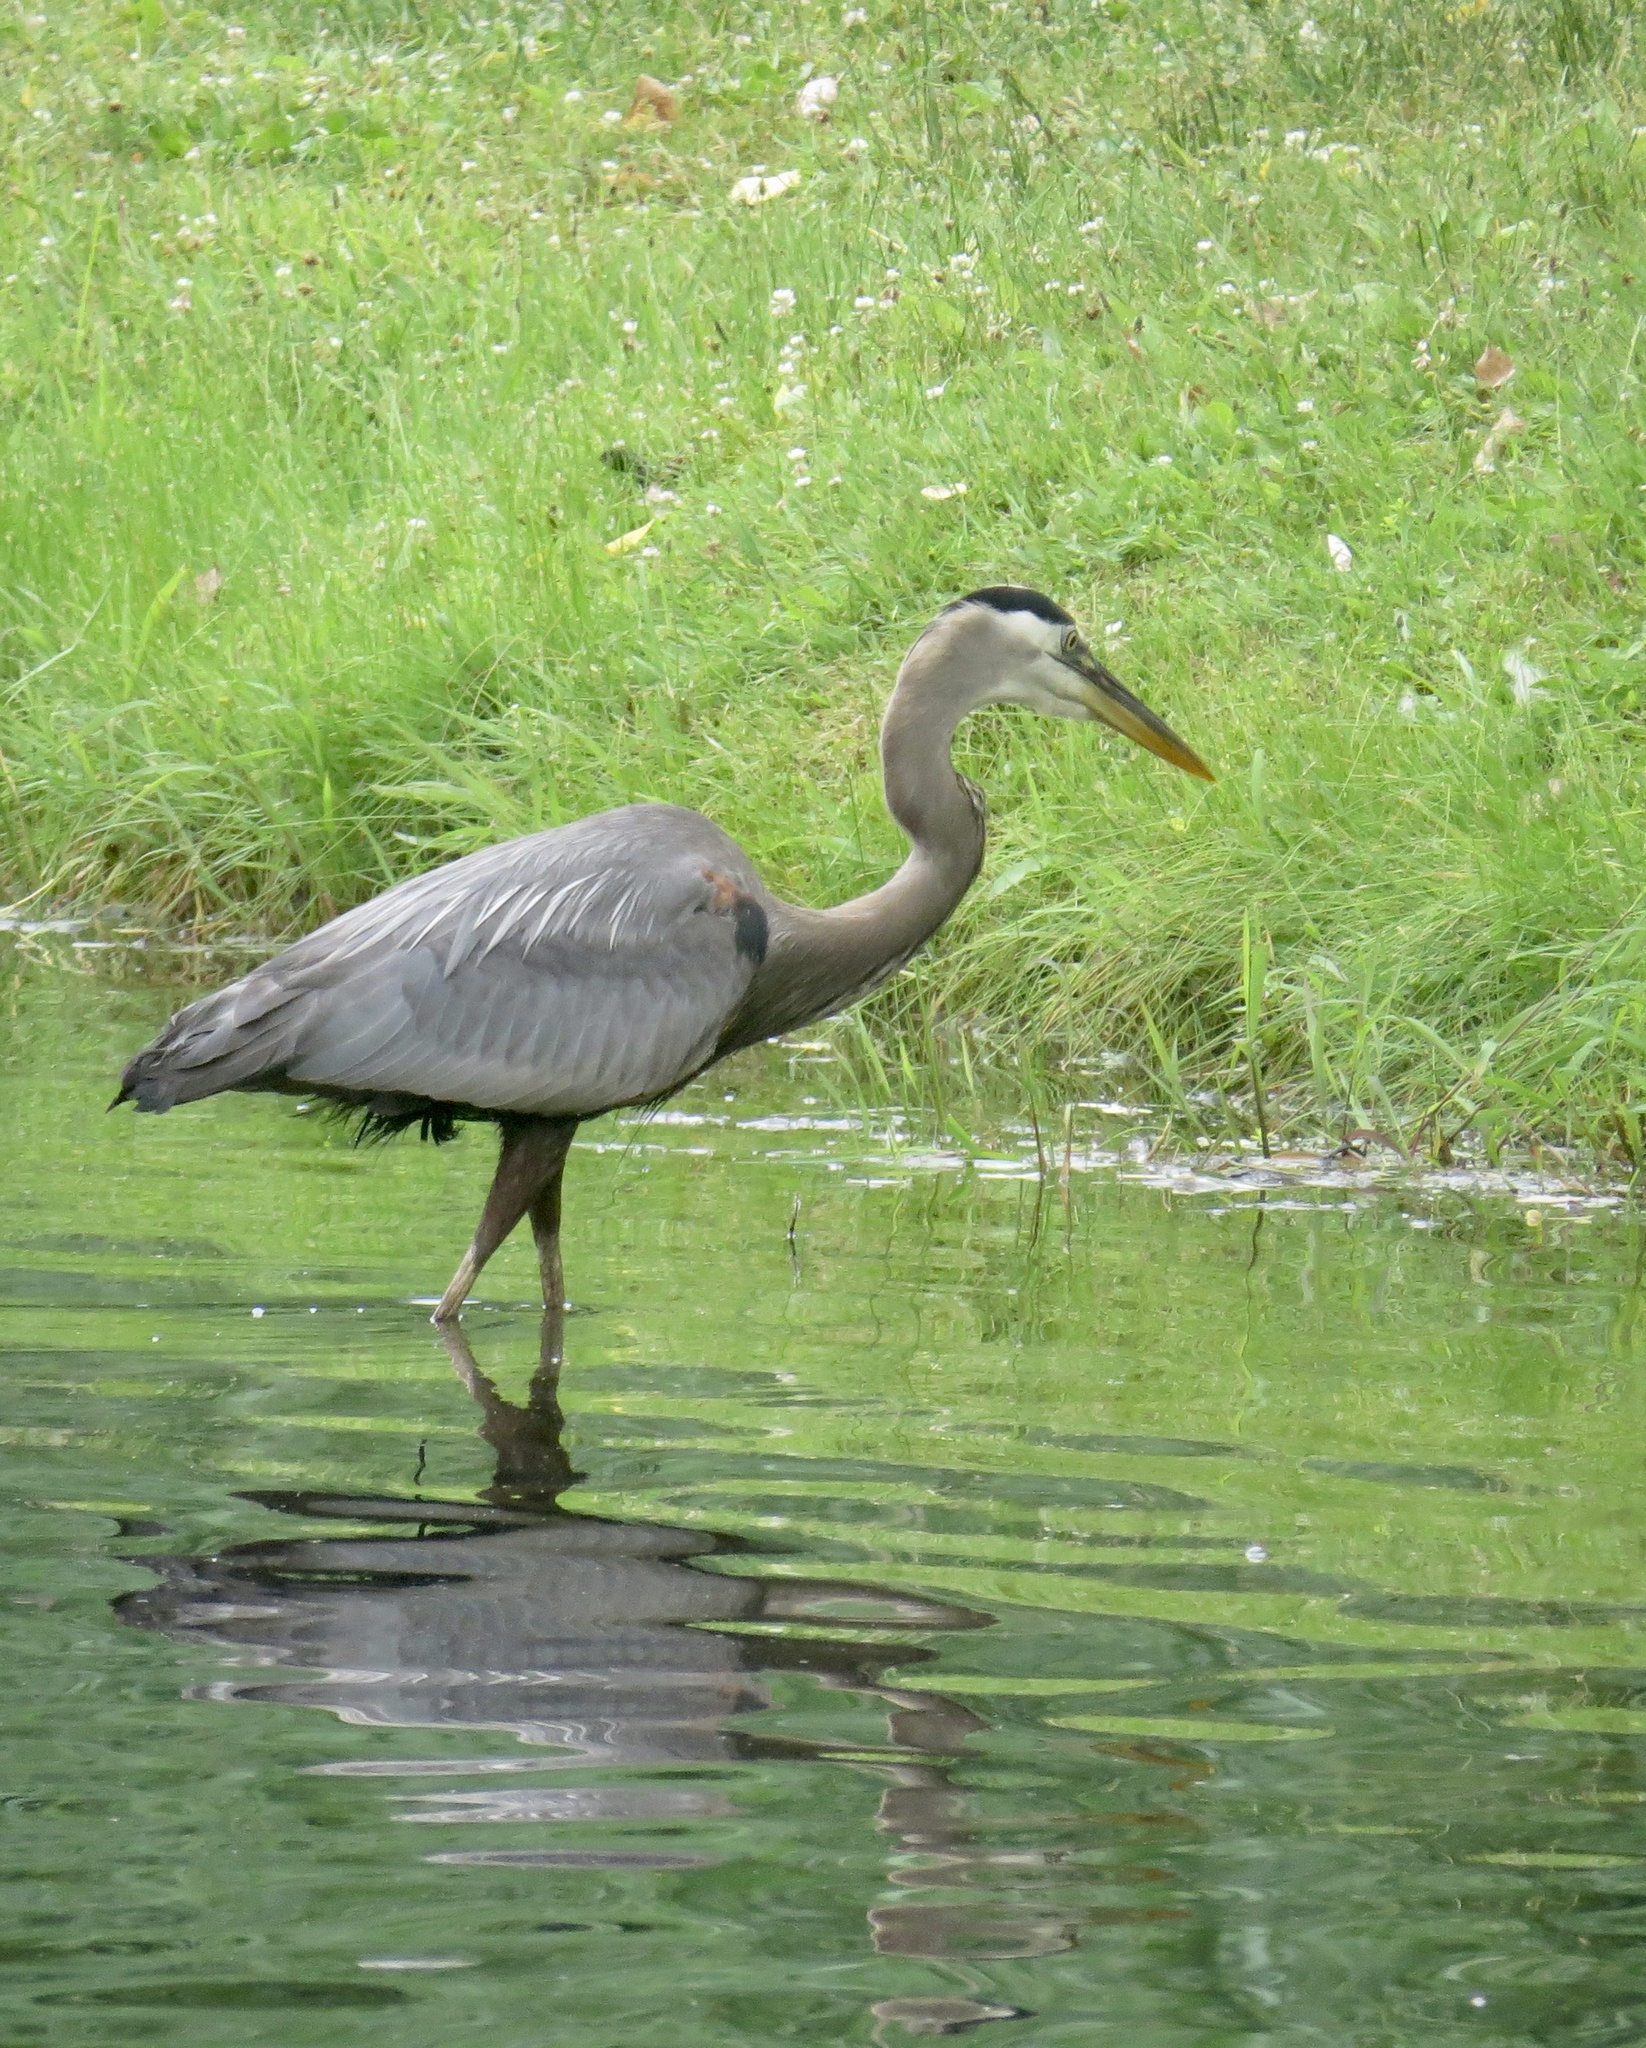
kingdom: Animalia
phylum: Chordata
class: Aves
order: Pelecaniformes
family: Ardeidae
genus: Ardea
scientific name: Ardea herodias
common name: Great blue heron
